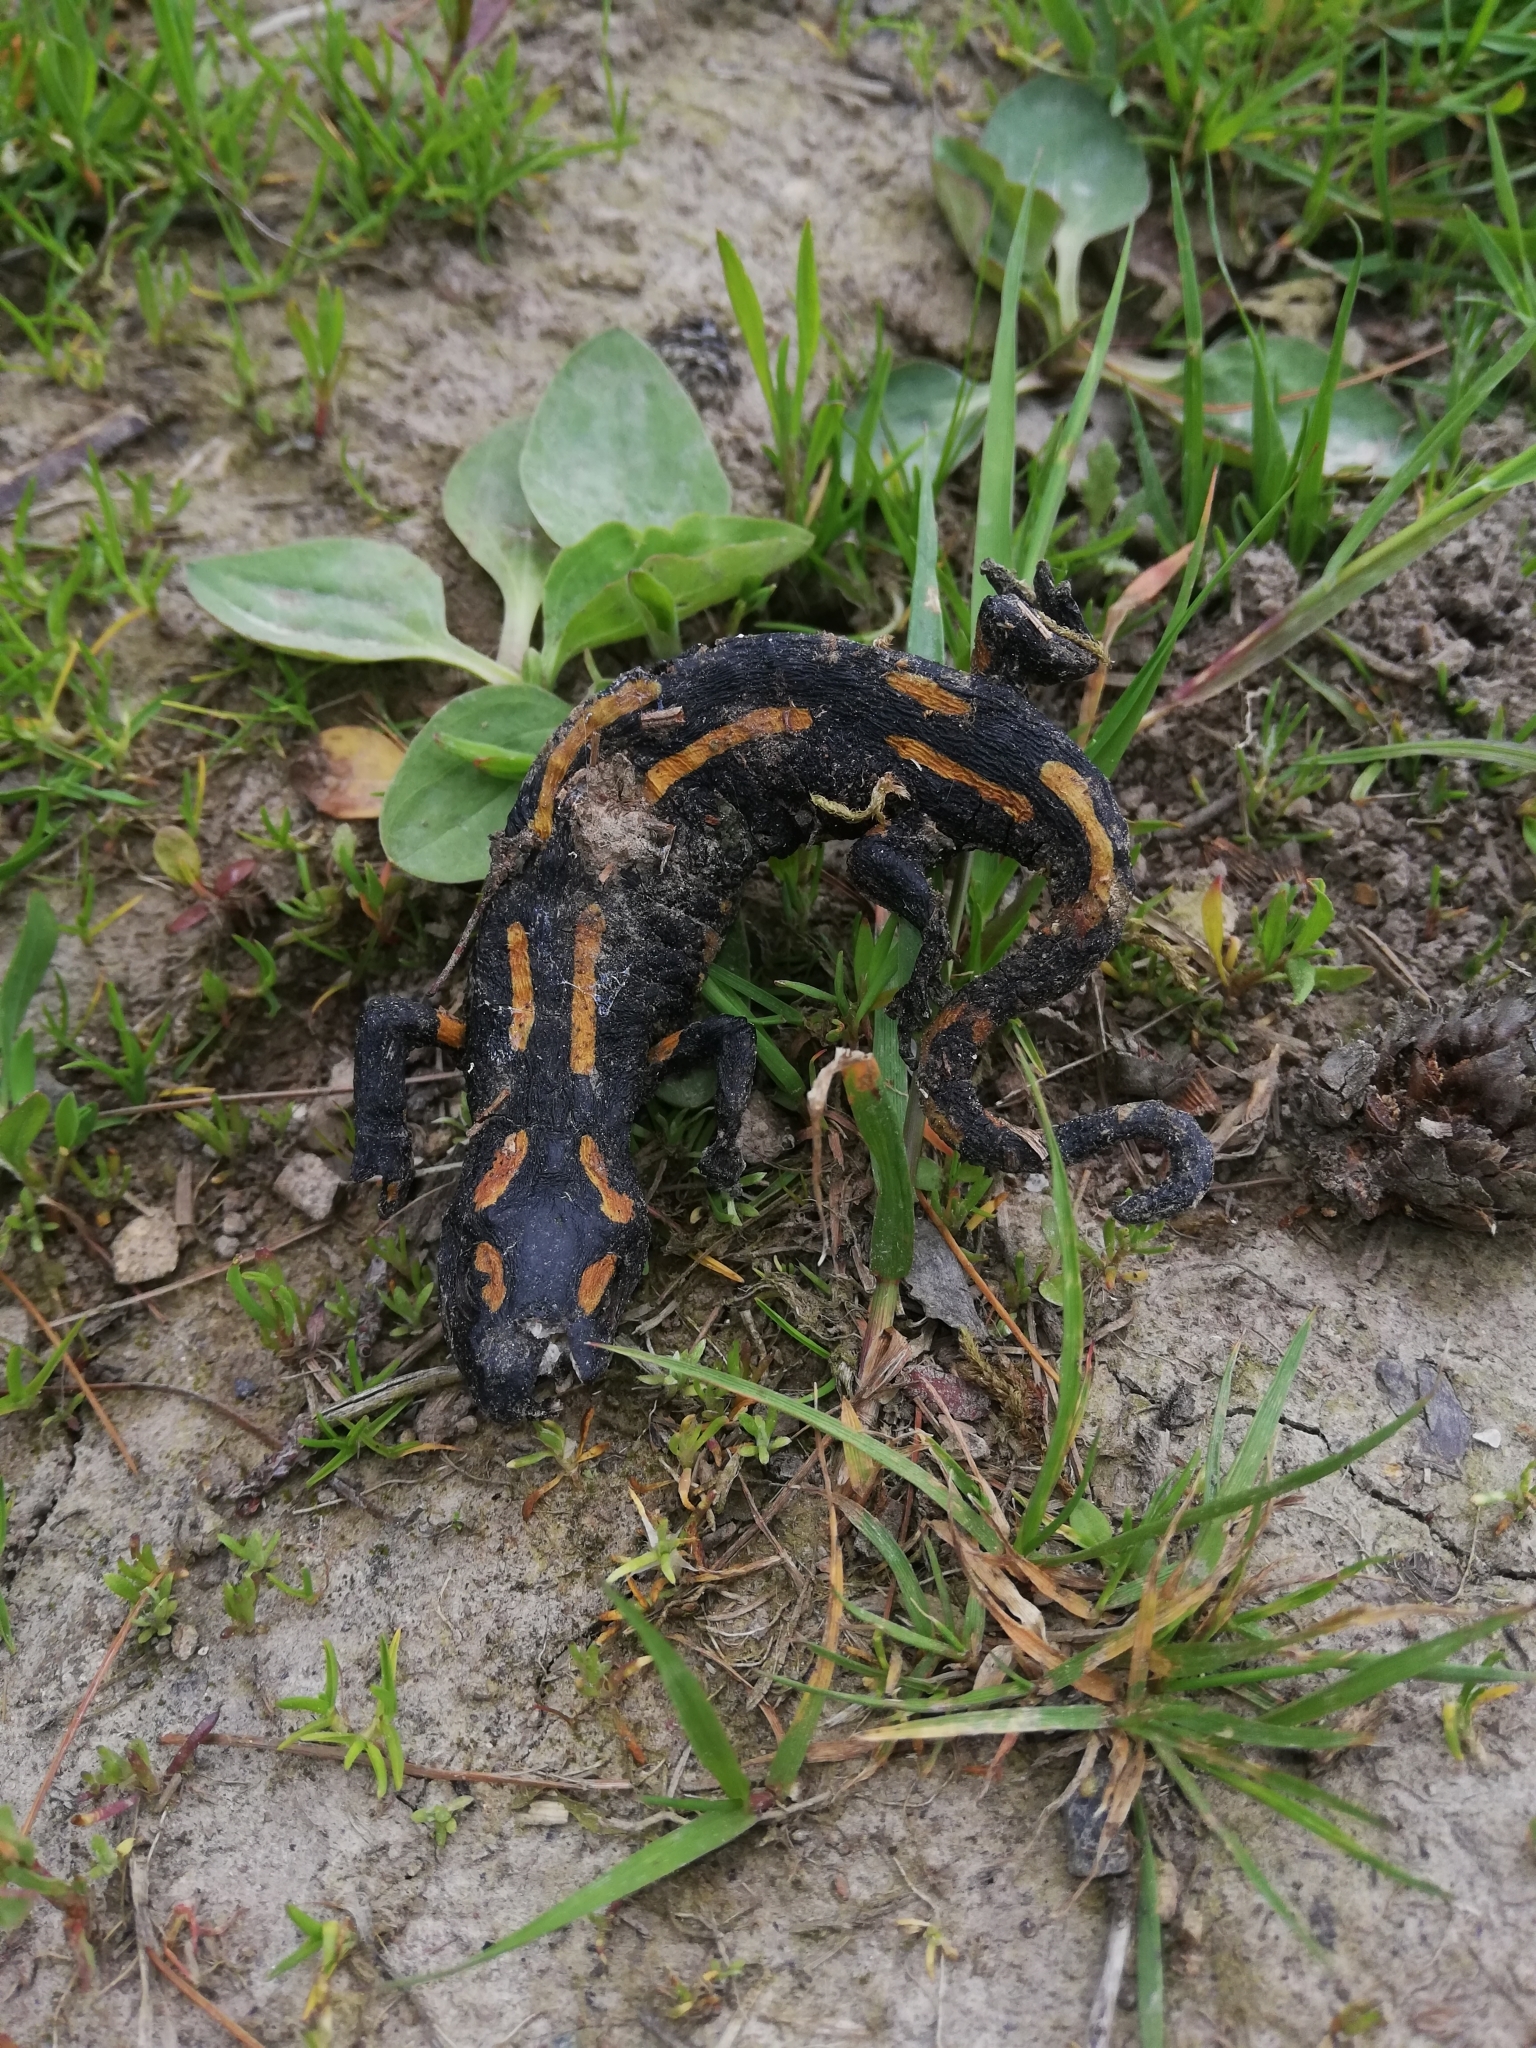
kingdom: Animalia
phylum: Chordata
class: Amphibia
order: Caudata
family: Salamandridae
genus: Salamandra
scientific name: Salamandra salamandra
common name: Fire salamander
